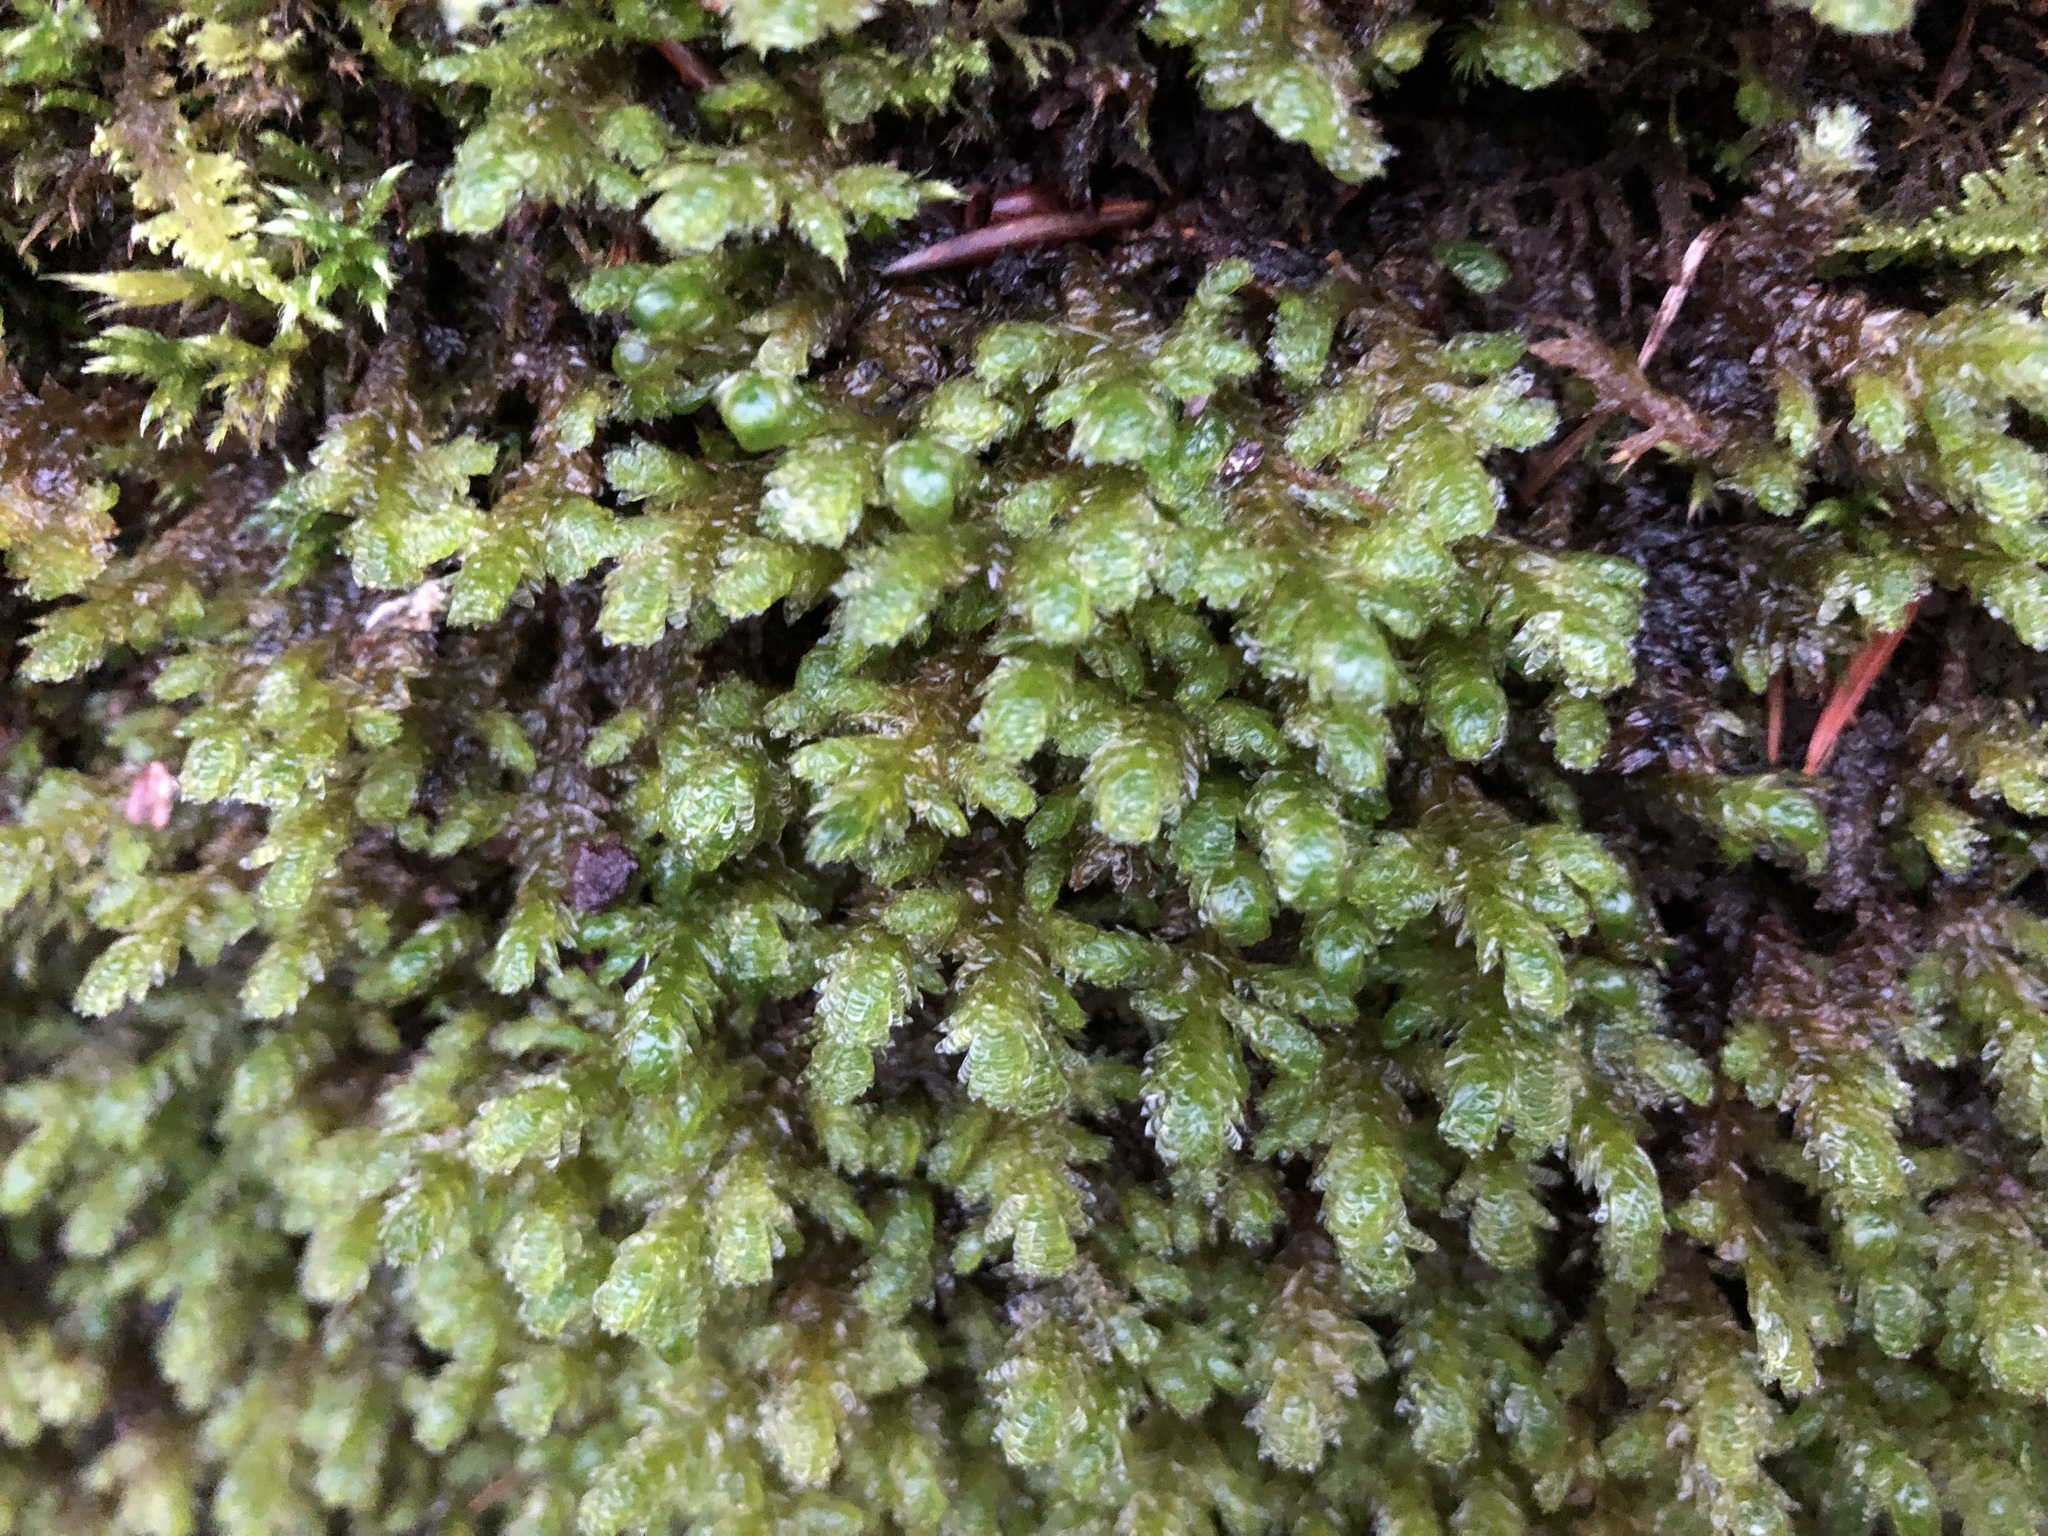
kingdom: Plantae
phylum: Bryophyta
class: Bryopsida
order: Hypnales
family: Neckeraceae
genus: Exsertotheca
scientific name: Exsertotheca crispa
